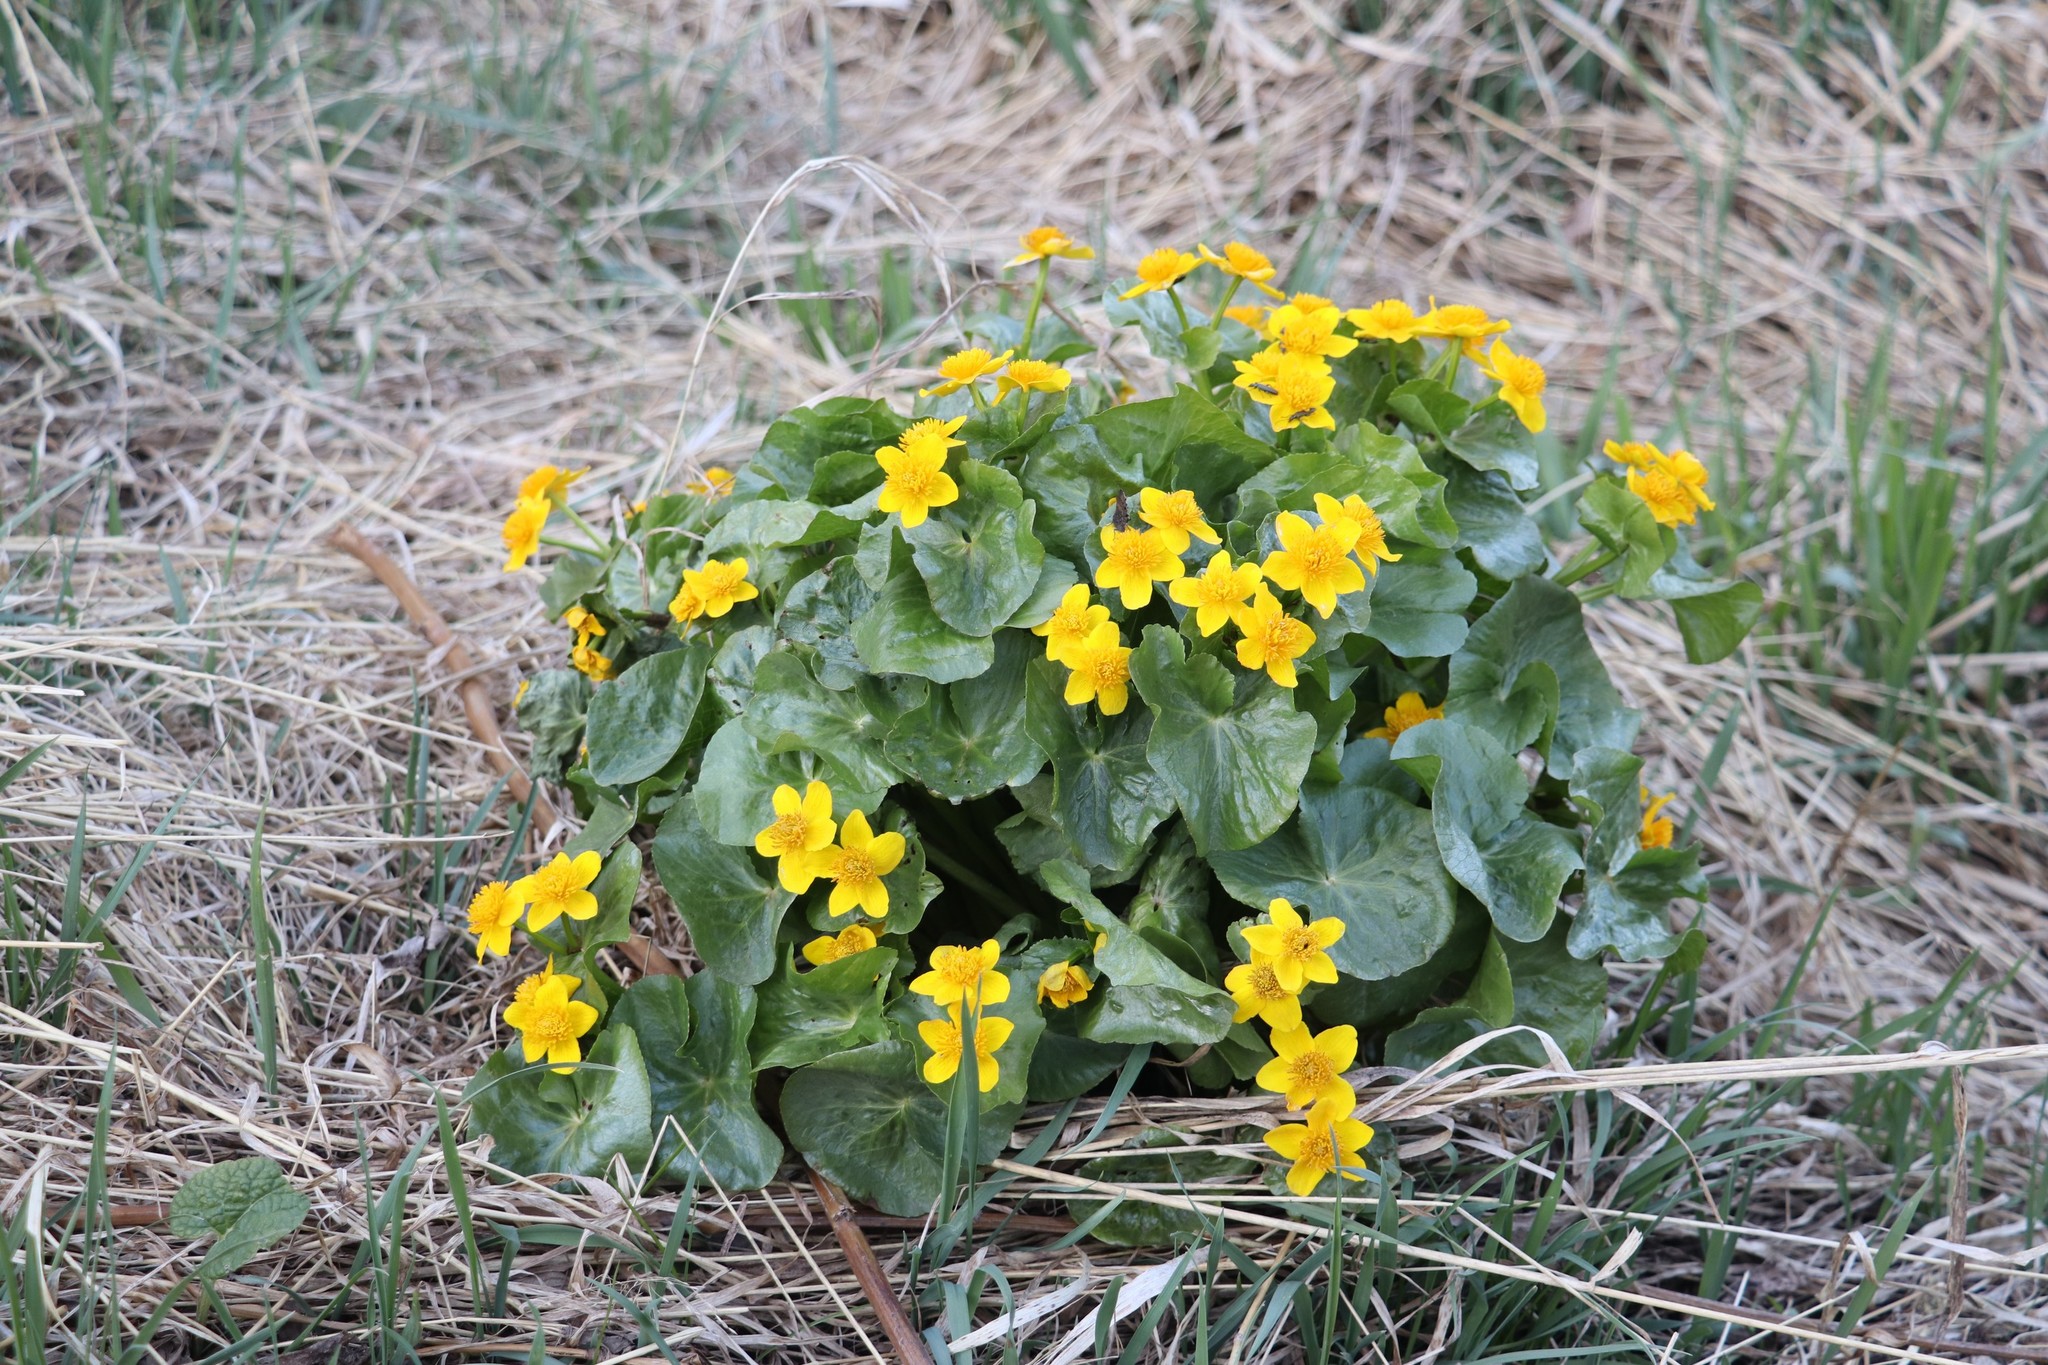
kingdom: Plantae
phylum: Tracheophyta
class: Magnoliopsida
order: Ranunculales
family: Ranunculaceae
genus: Caltha
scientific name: Caltha palustris
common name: Marsh marigold
